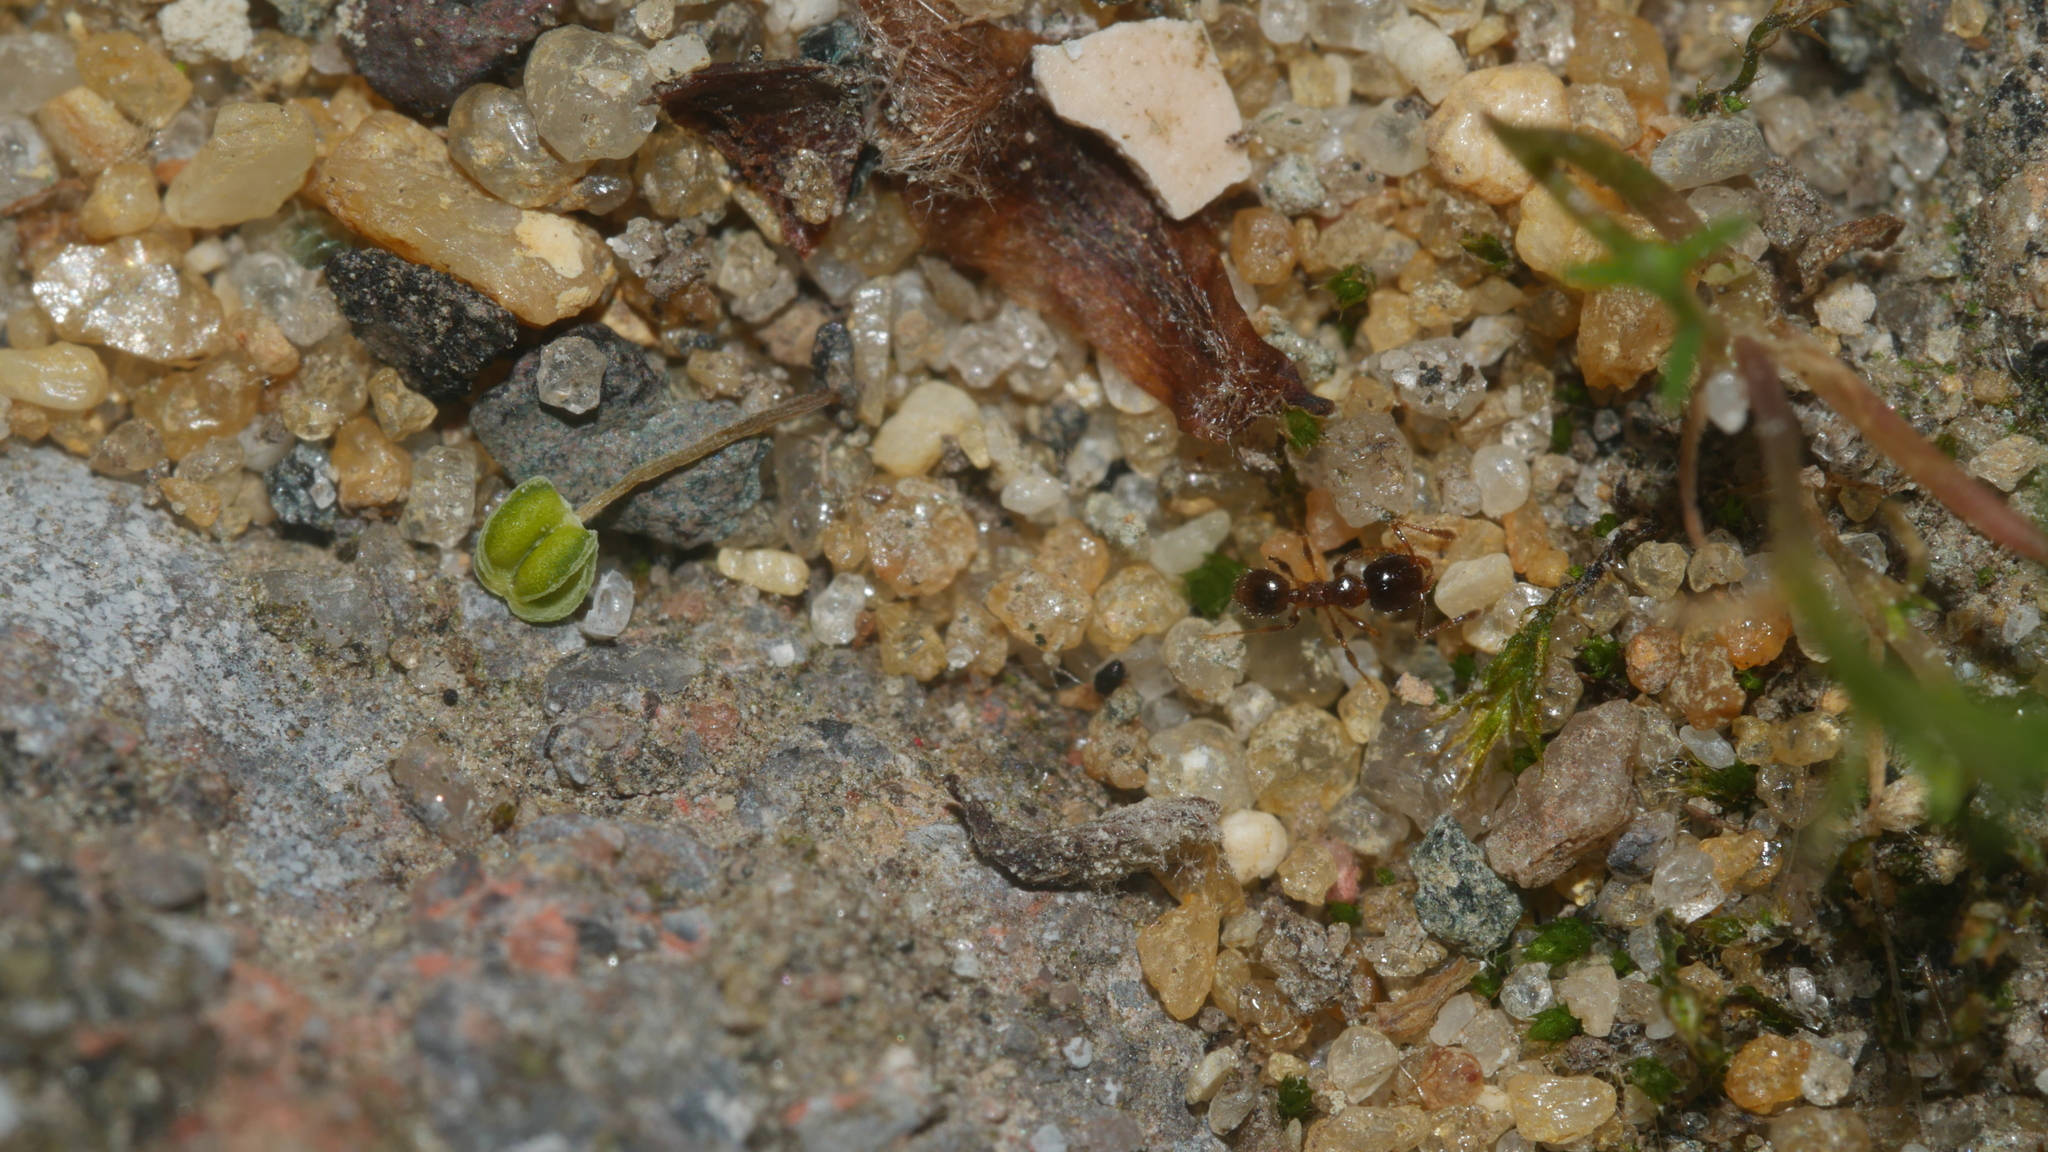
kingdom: Animalia
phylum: Arthropoda
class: Insecta
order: Hymenoptera
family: Formicidae
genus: Pheidole
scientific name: Pheidole bicarinata
